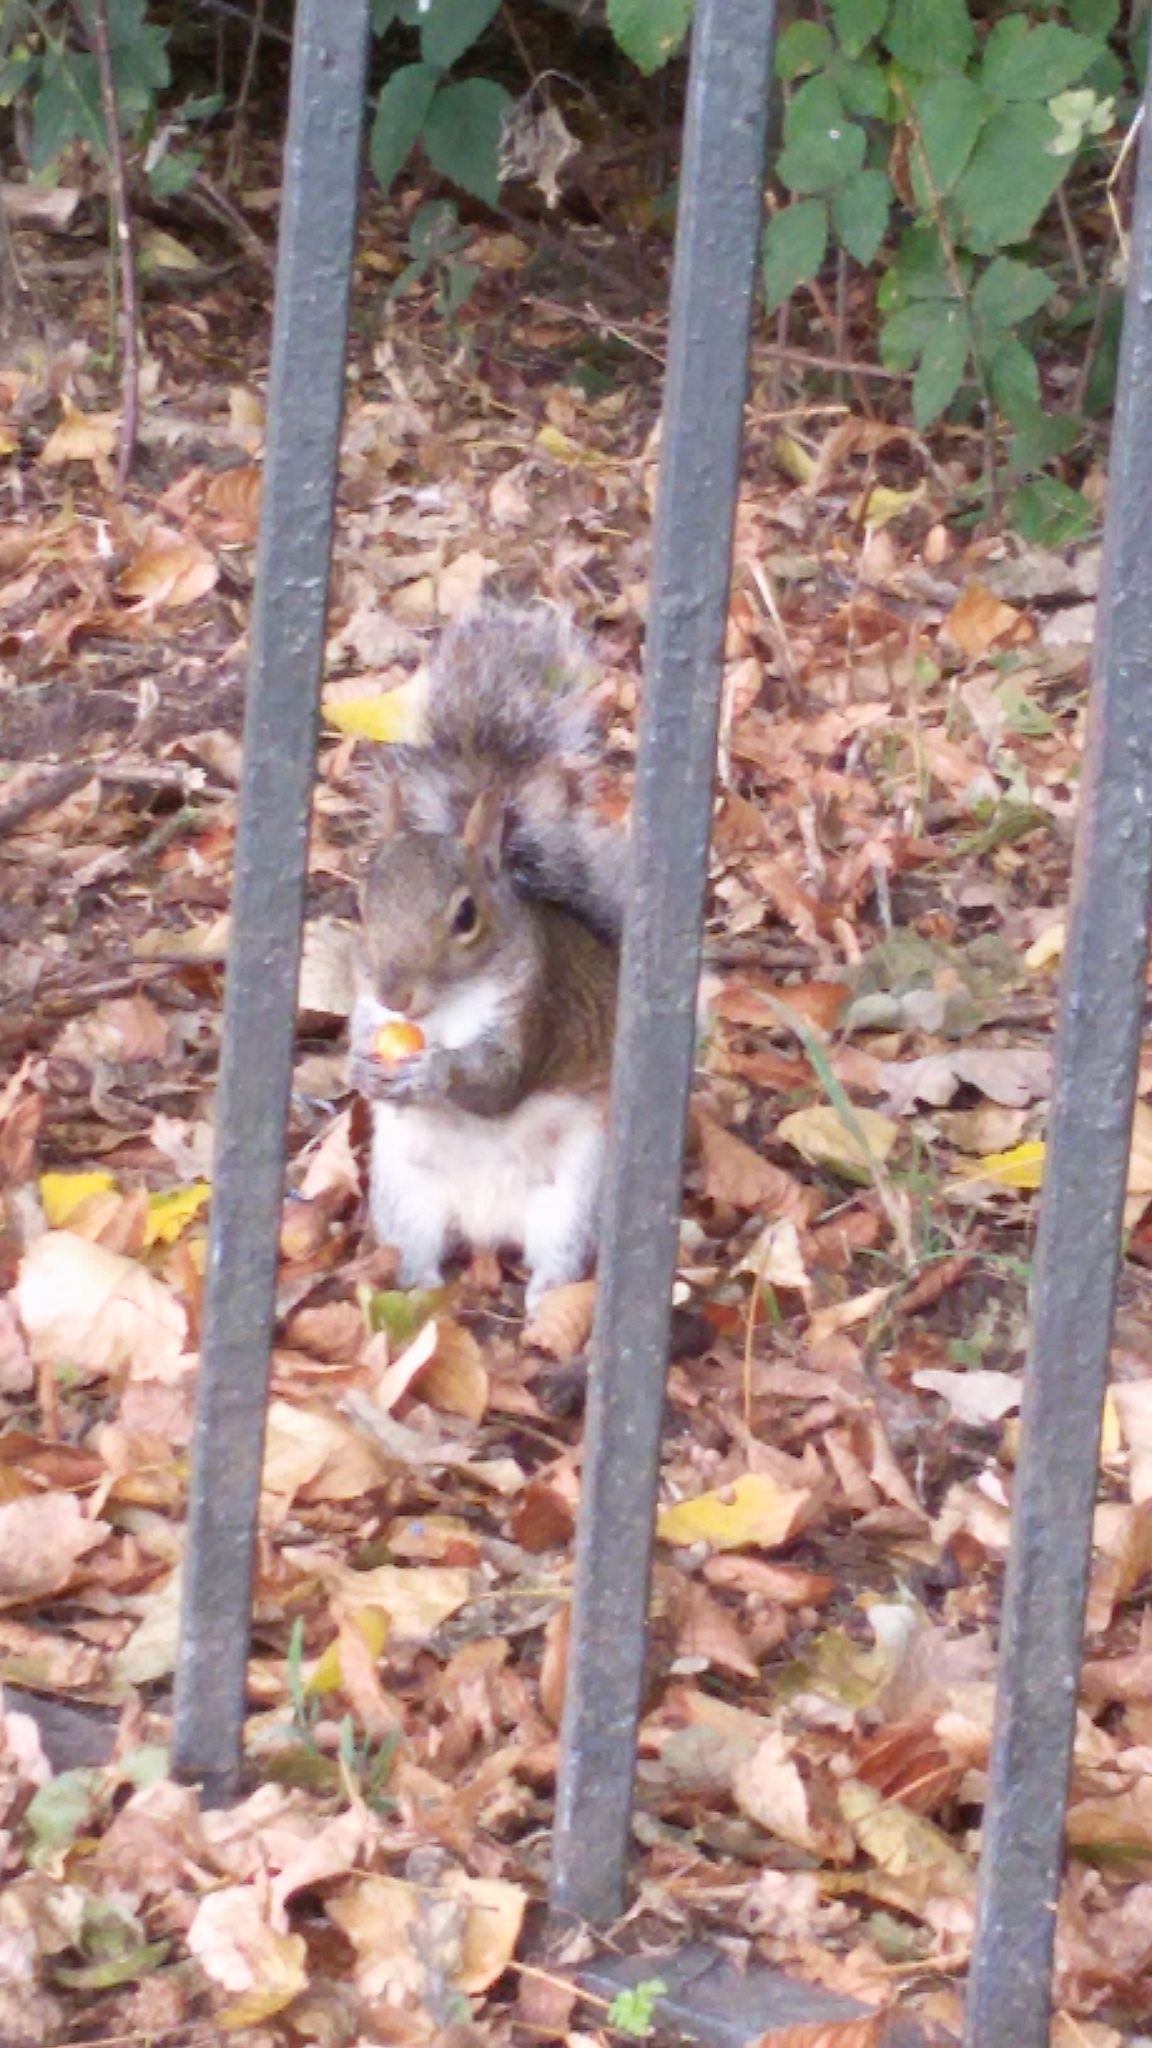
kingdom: Animalia
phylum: Chordata
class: Mammalia
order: Rodentia
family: Sciuridae
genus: Sciurus
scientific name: Sciurus carolinensis
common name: Eastern gray squirrel
